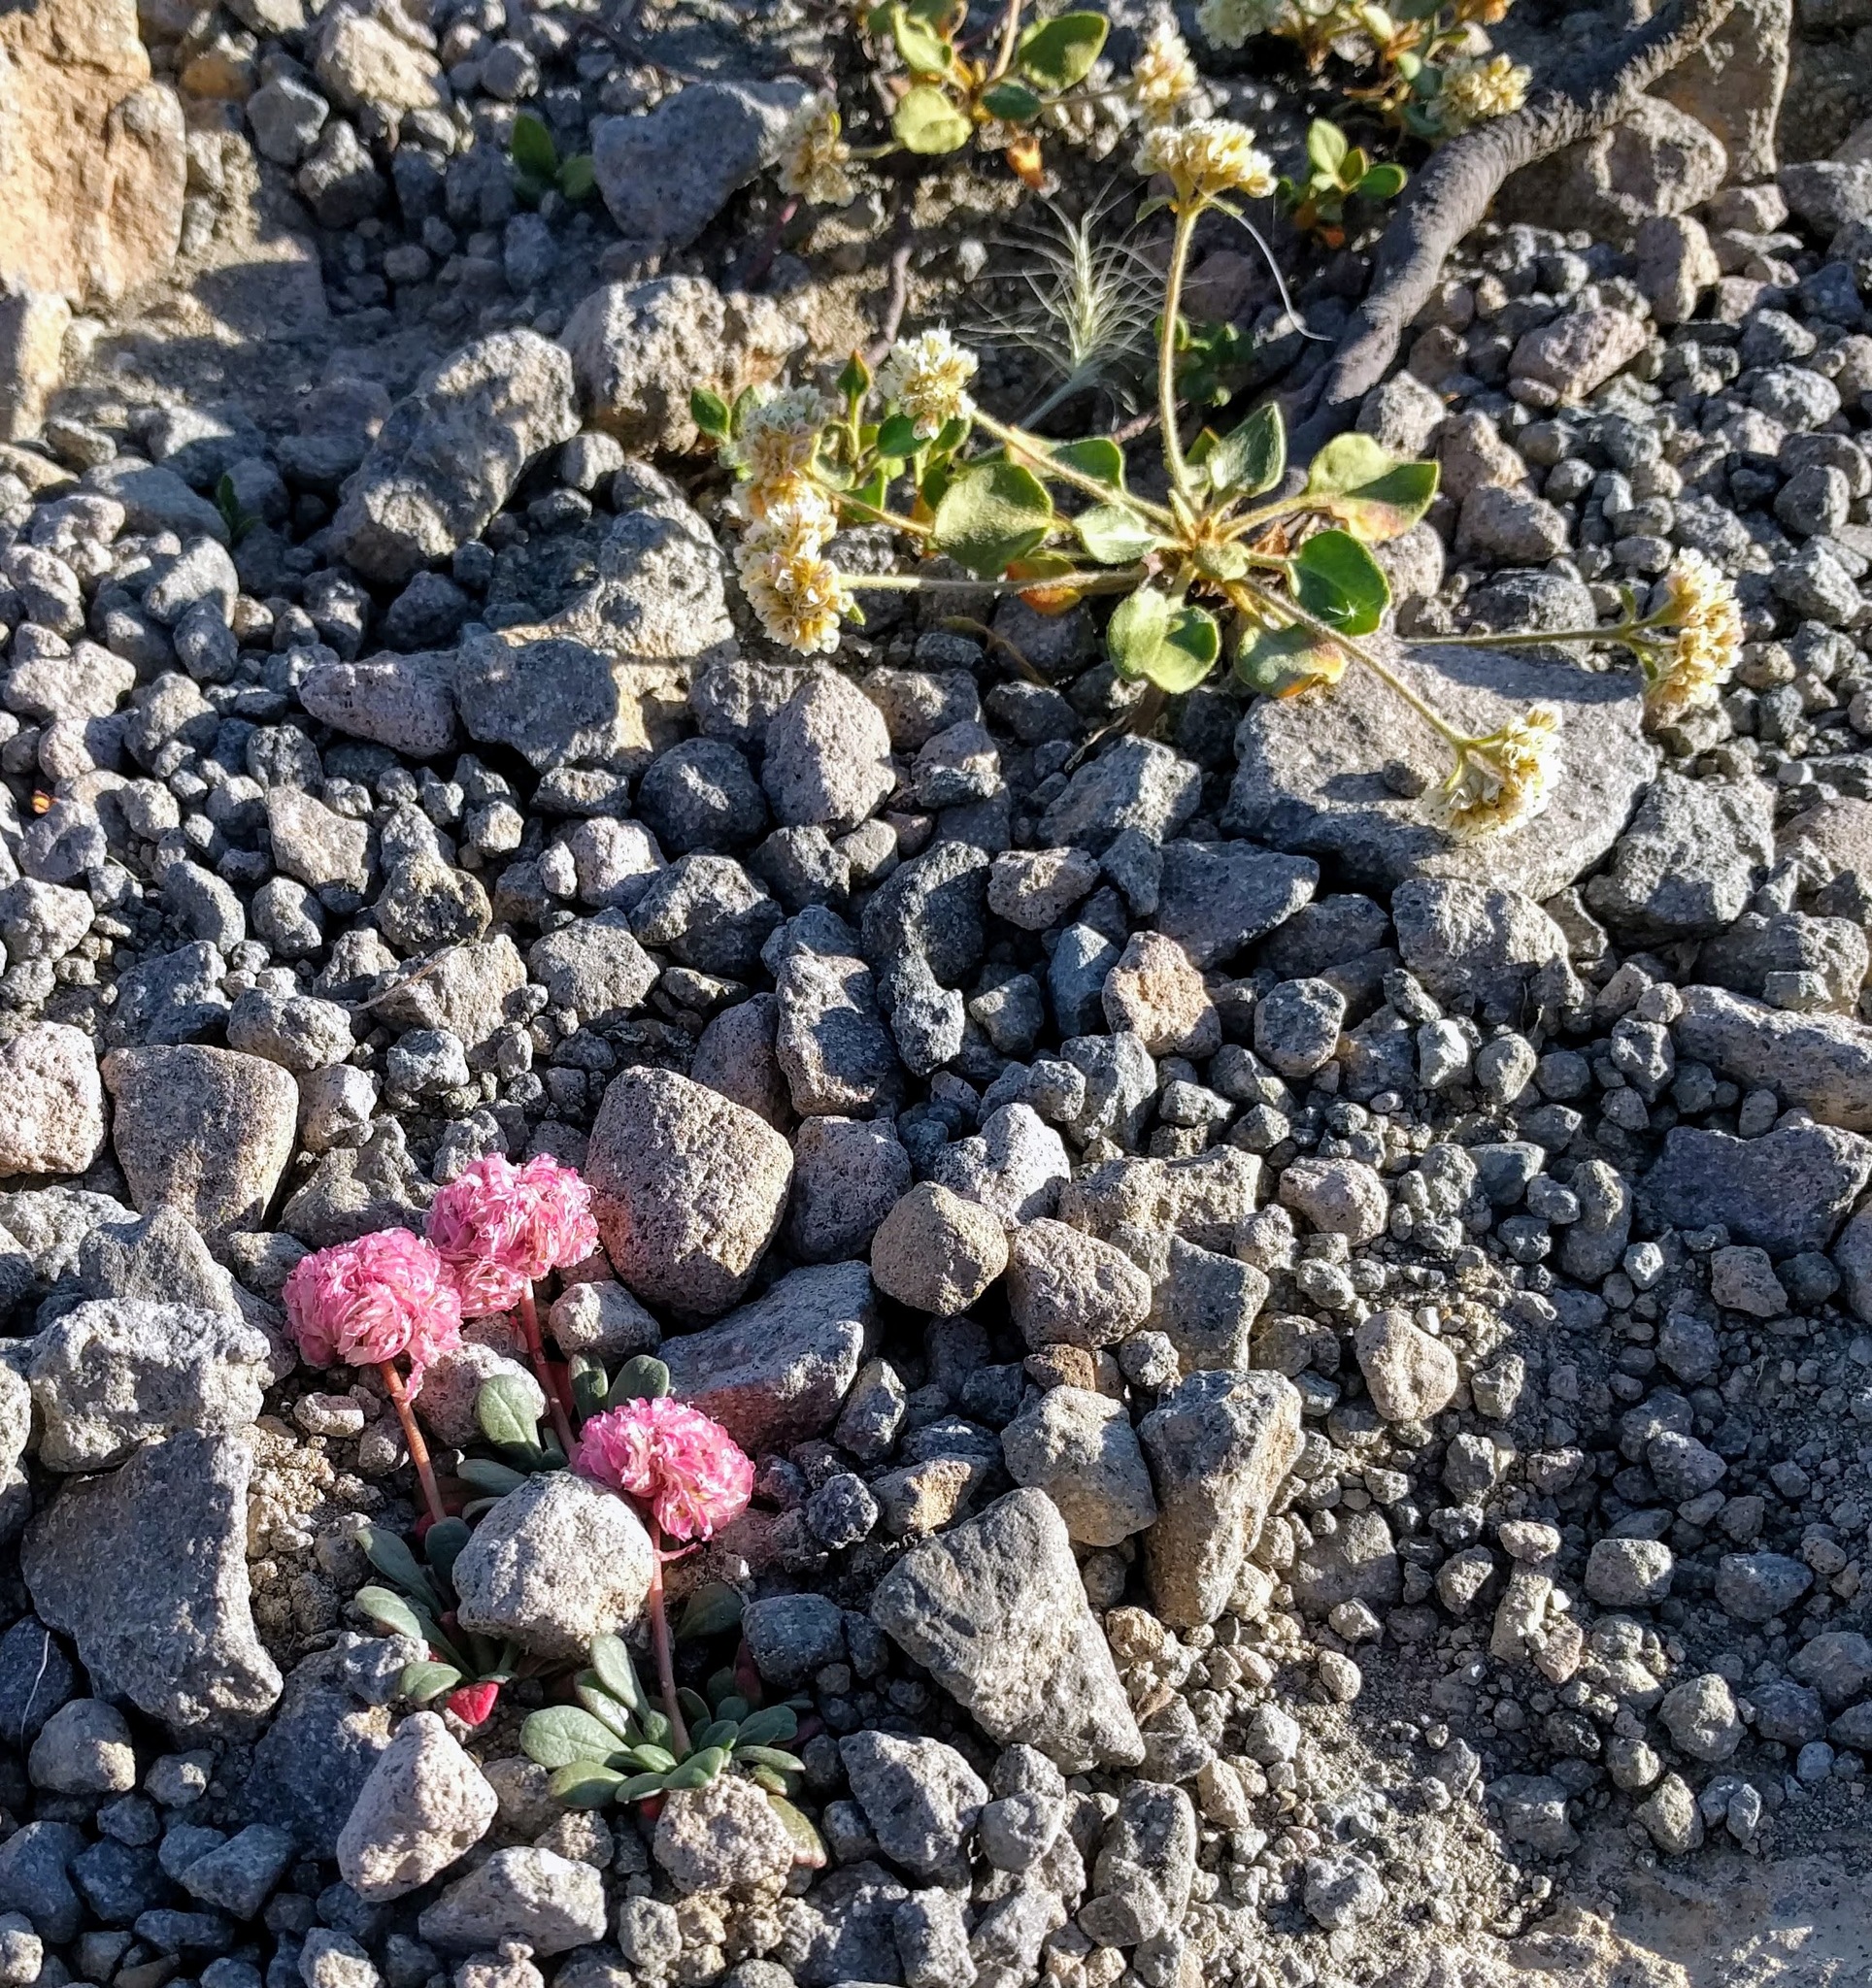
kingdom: Plantae
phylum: Tracheophyta
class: Magnoliopsida
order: Caryophyllales
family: Polygonaceae
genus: Eriogonum
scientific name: Eriogonum pyrolifolium
